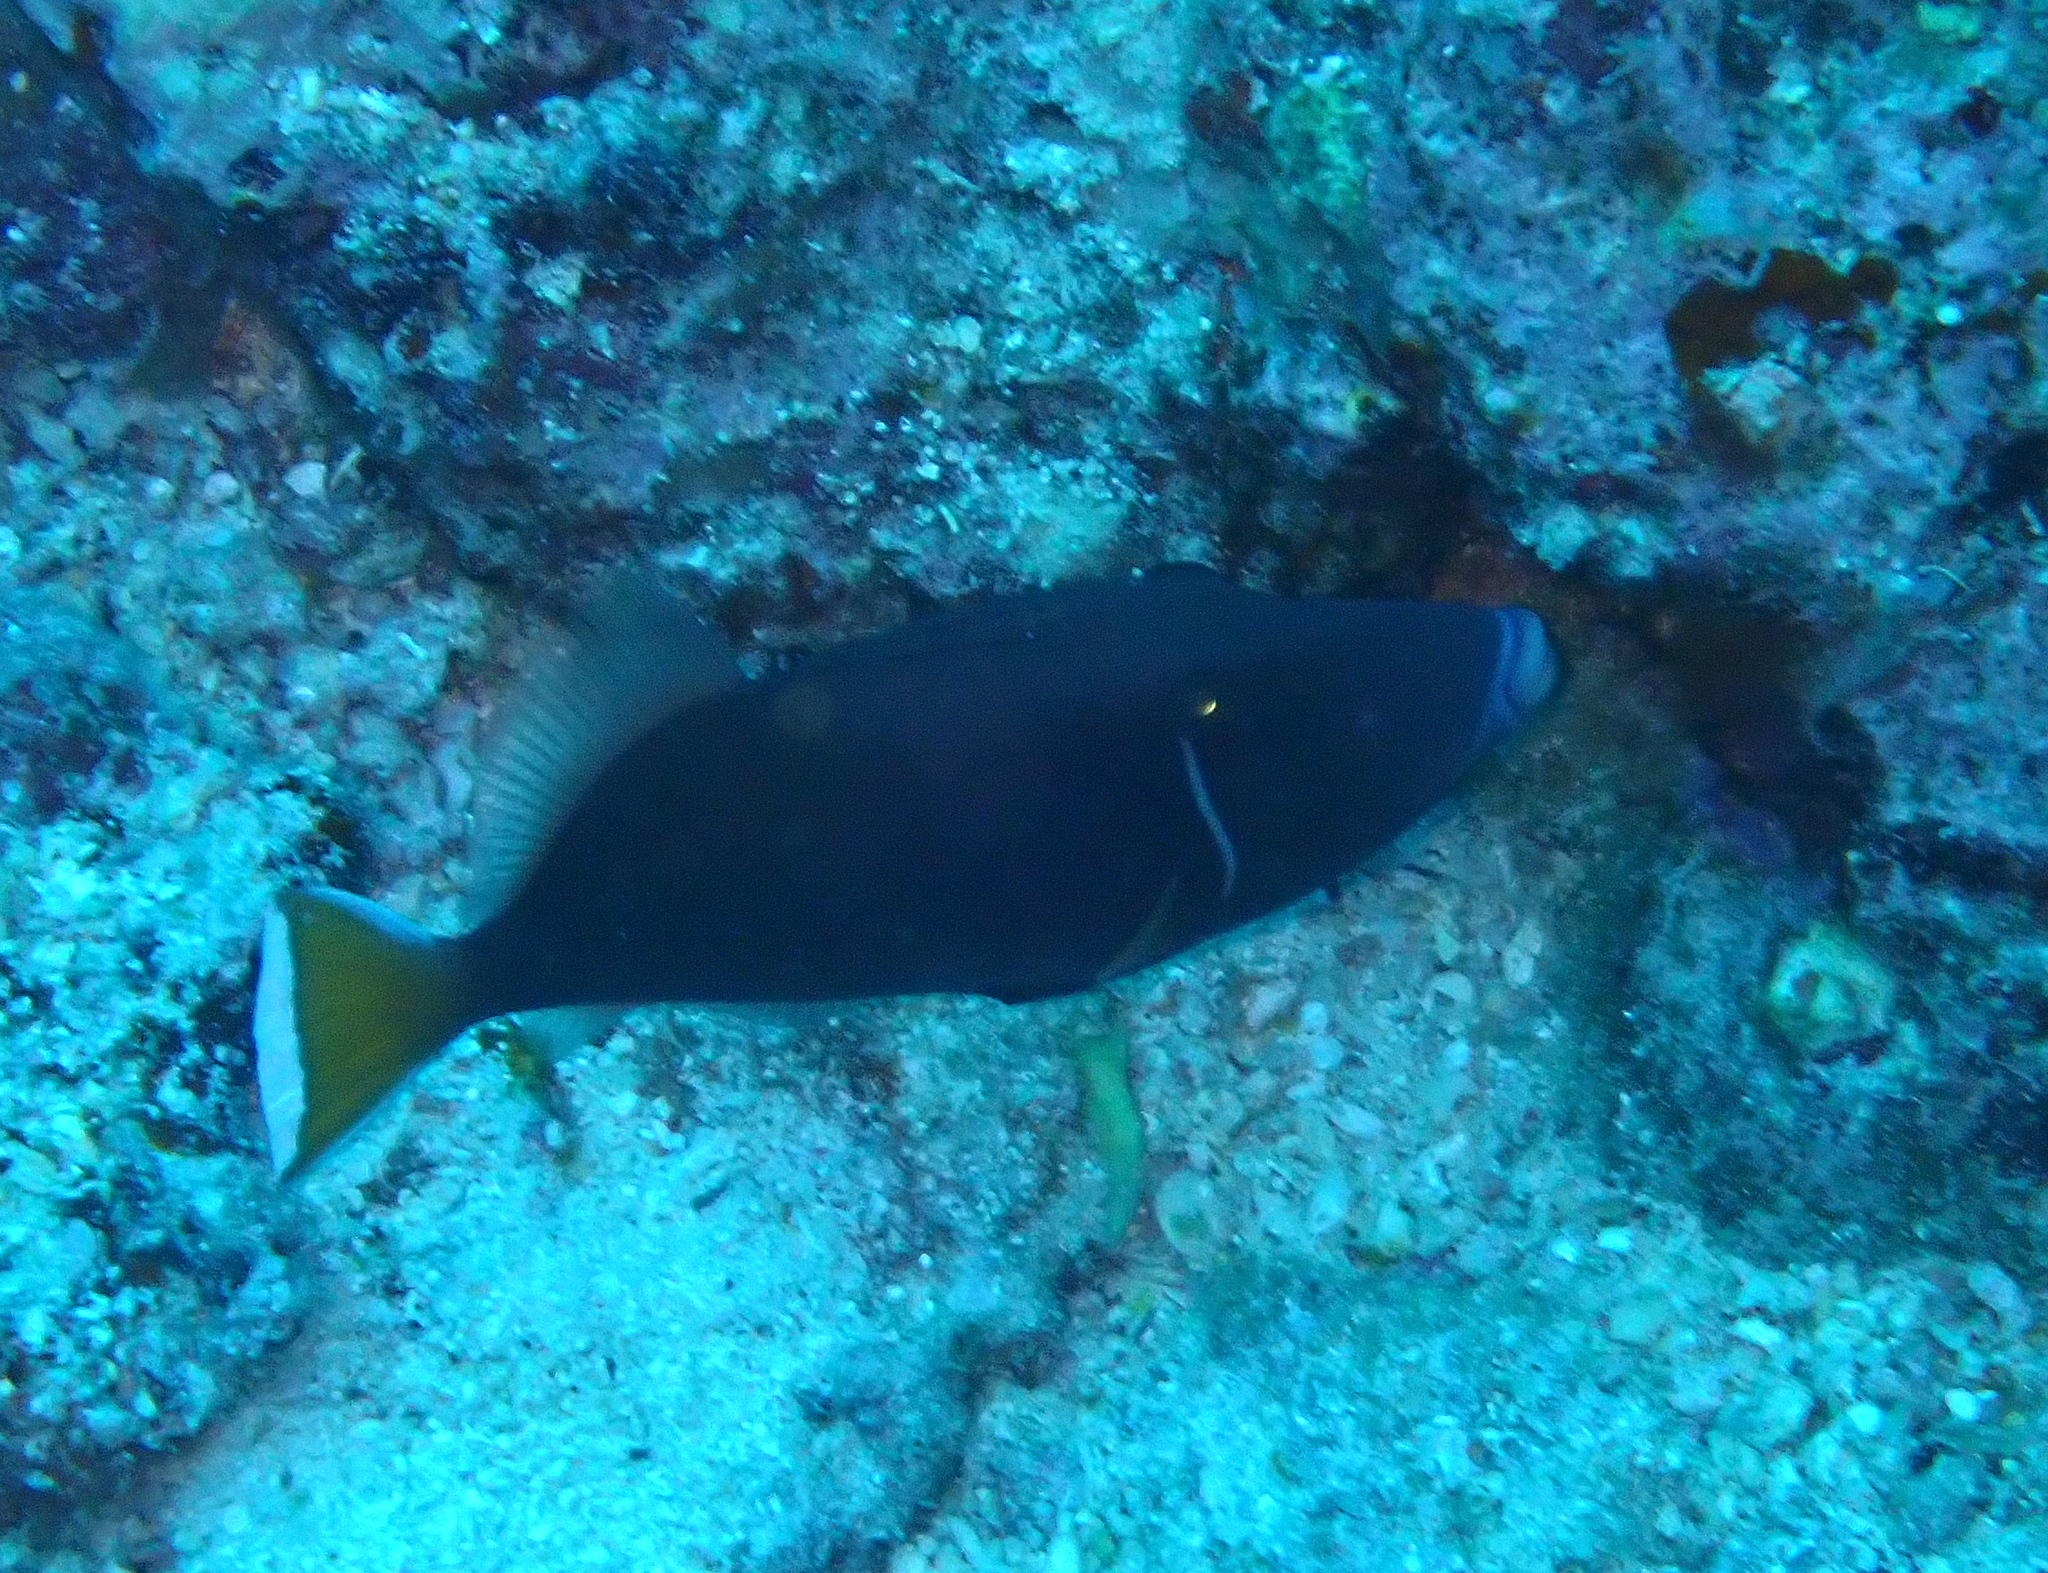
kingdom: Animalia
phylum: Chordata
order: Tetraodontiformes
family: Balistidae
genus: Sufflamen
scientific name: Sufflamen chrysopterum
